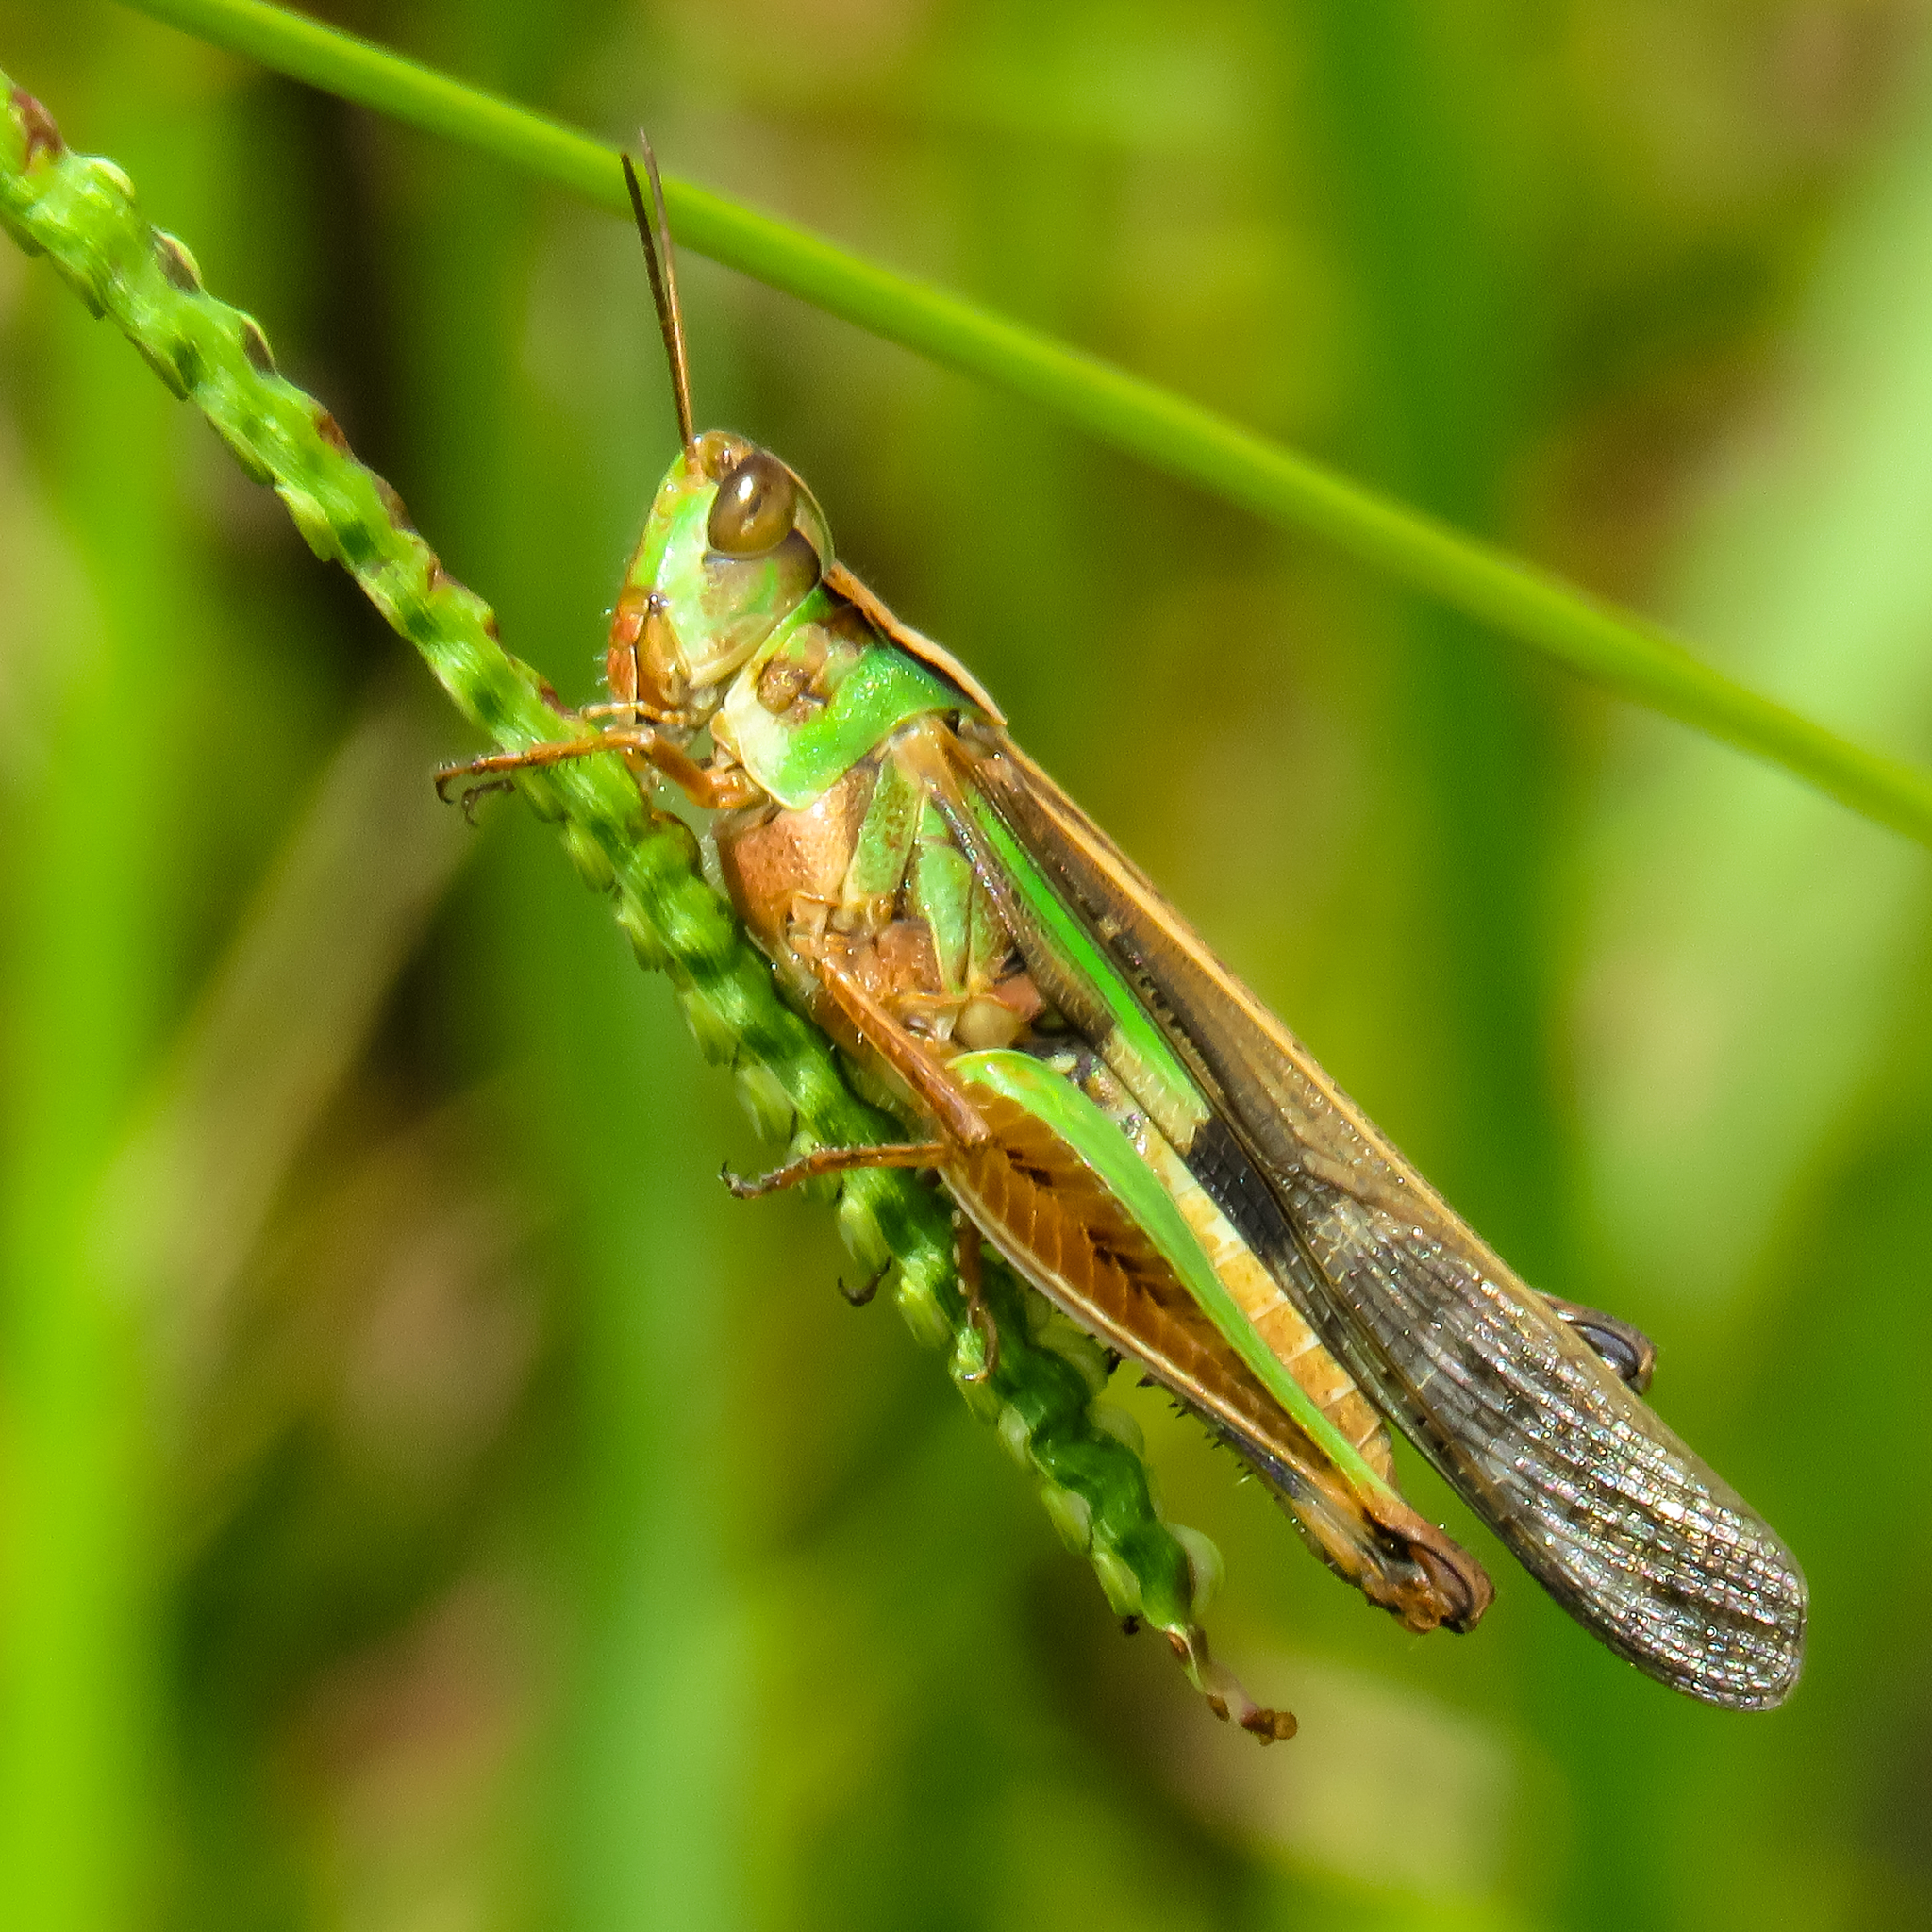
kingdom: Animalia
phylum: Arthropoda
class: Insecta
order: Orthoptera
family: Acrididae
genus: Aiolopus
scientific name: Aiolopus thalassinus
